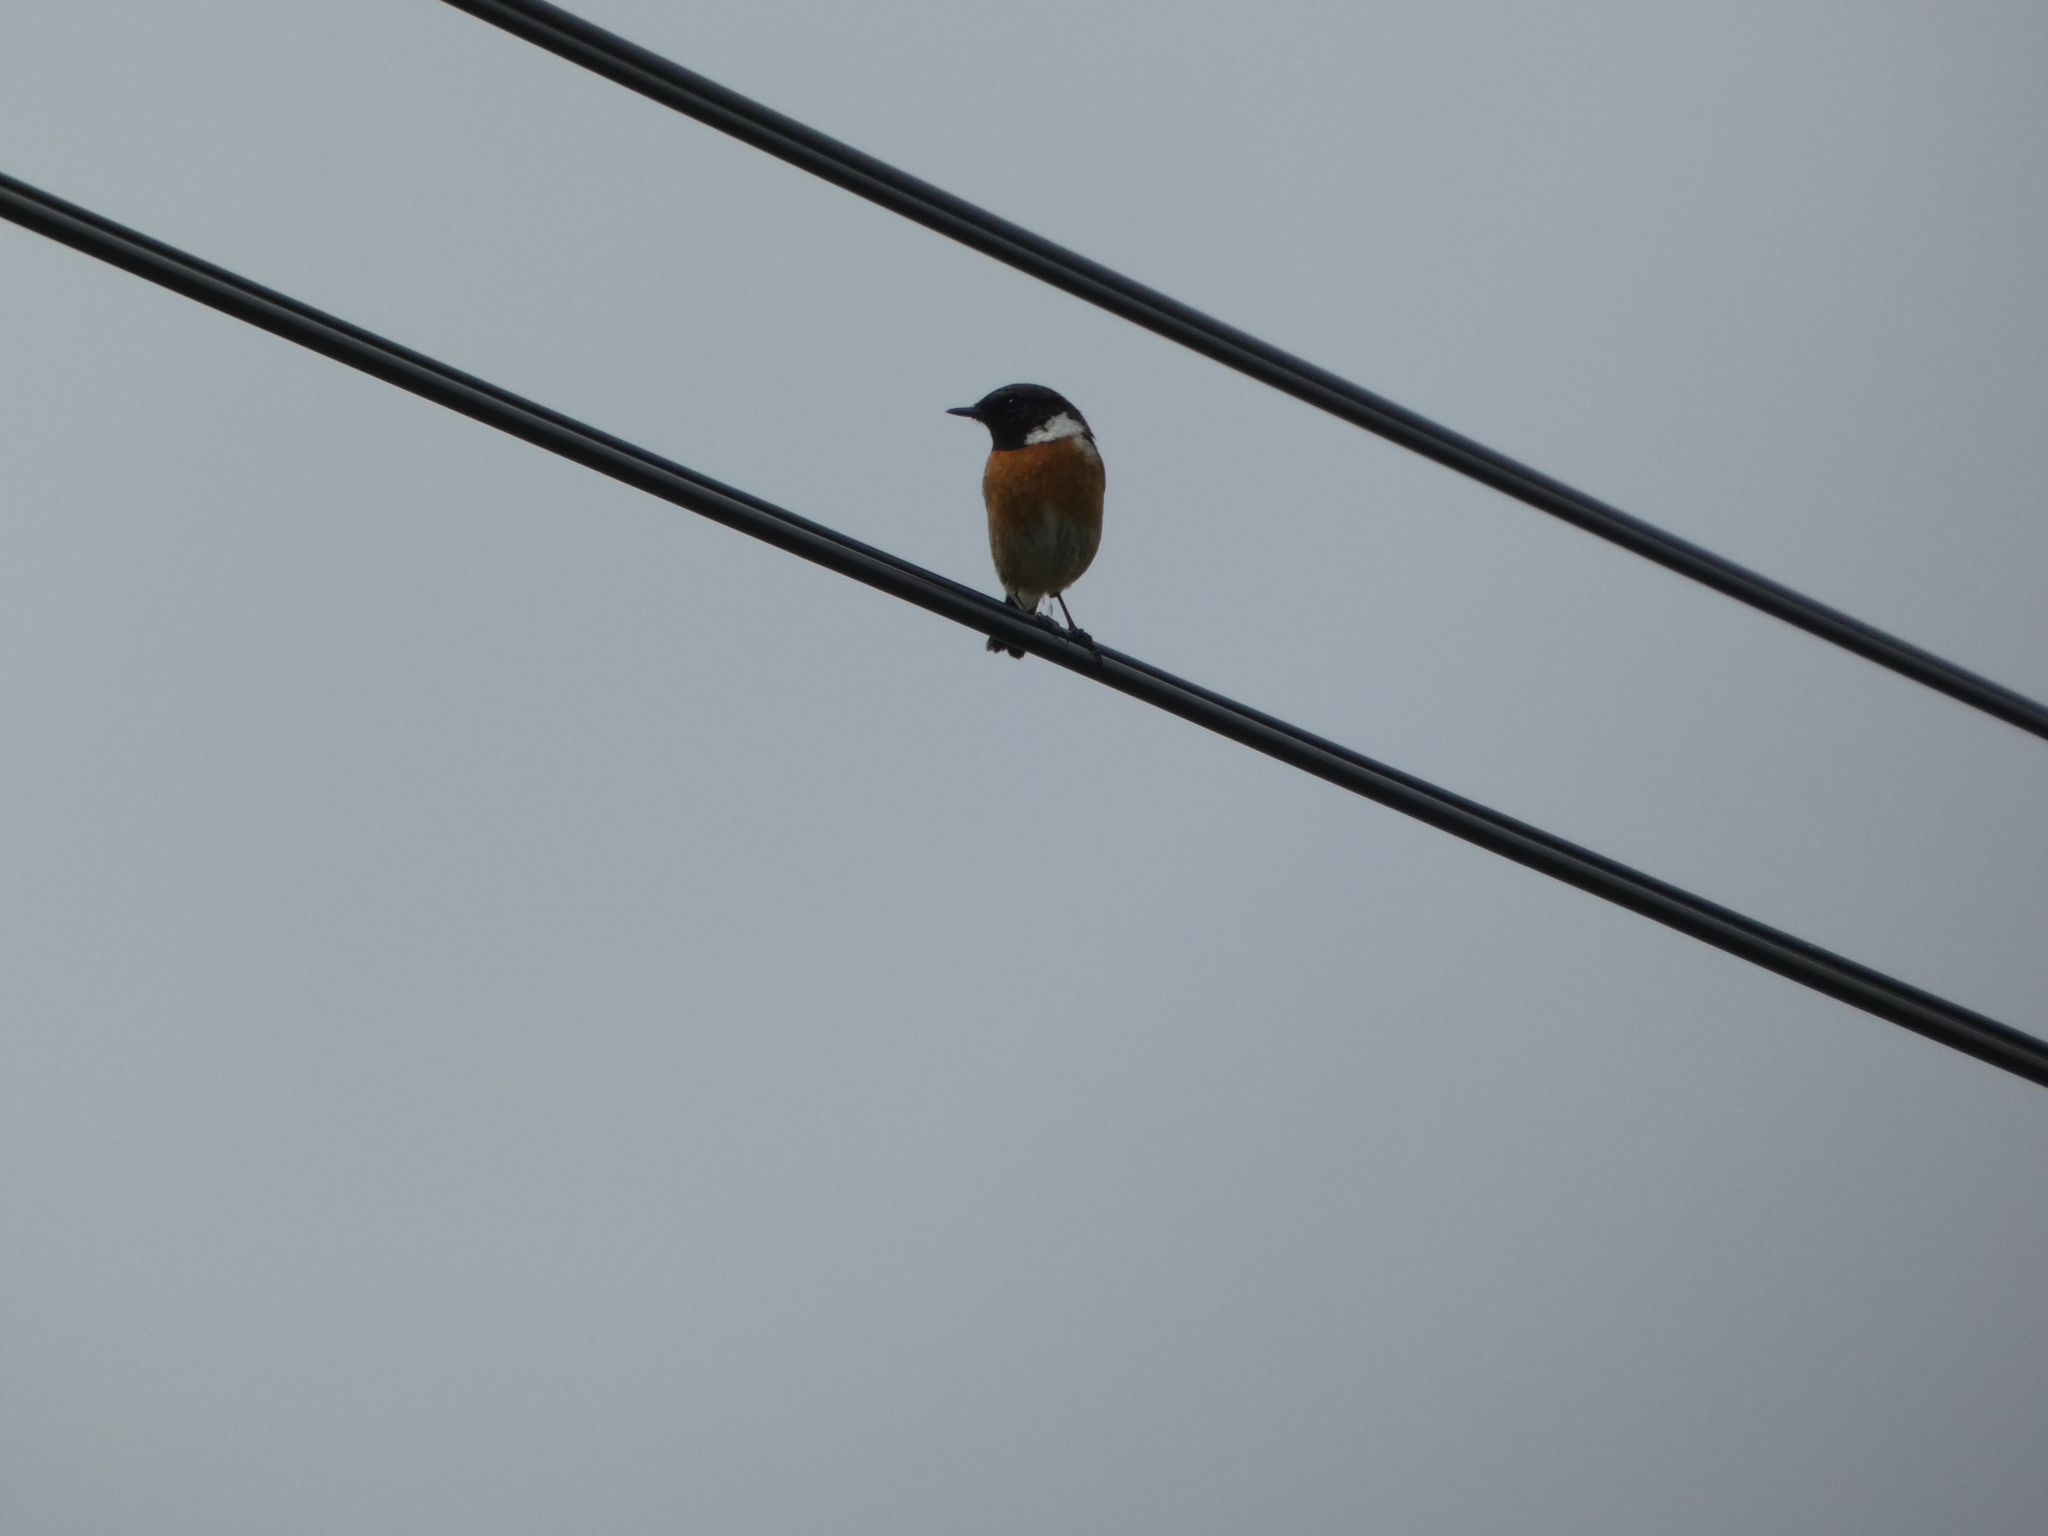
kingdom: Animalia
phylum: Chordata
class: Aves
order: Passeriformes
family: Muscicapidae
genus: Saxicola
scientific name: Saxicola rubicola
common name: European stonechat
